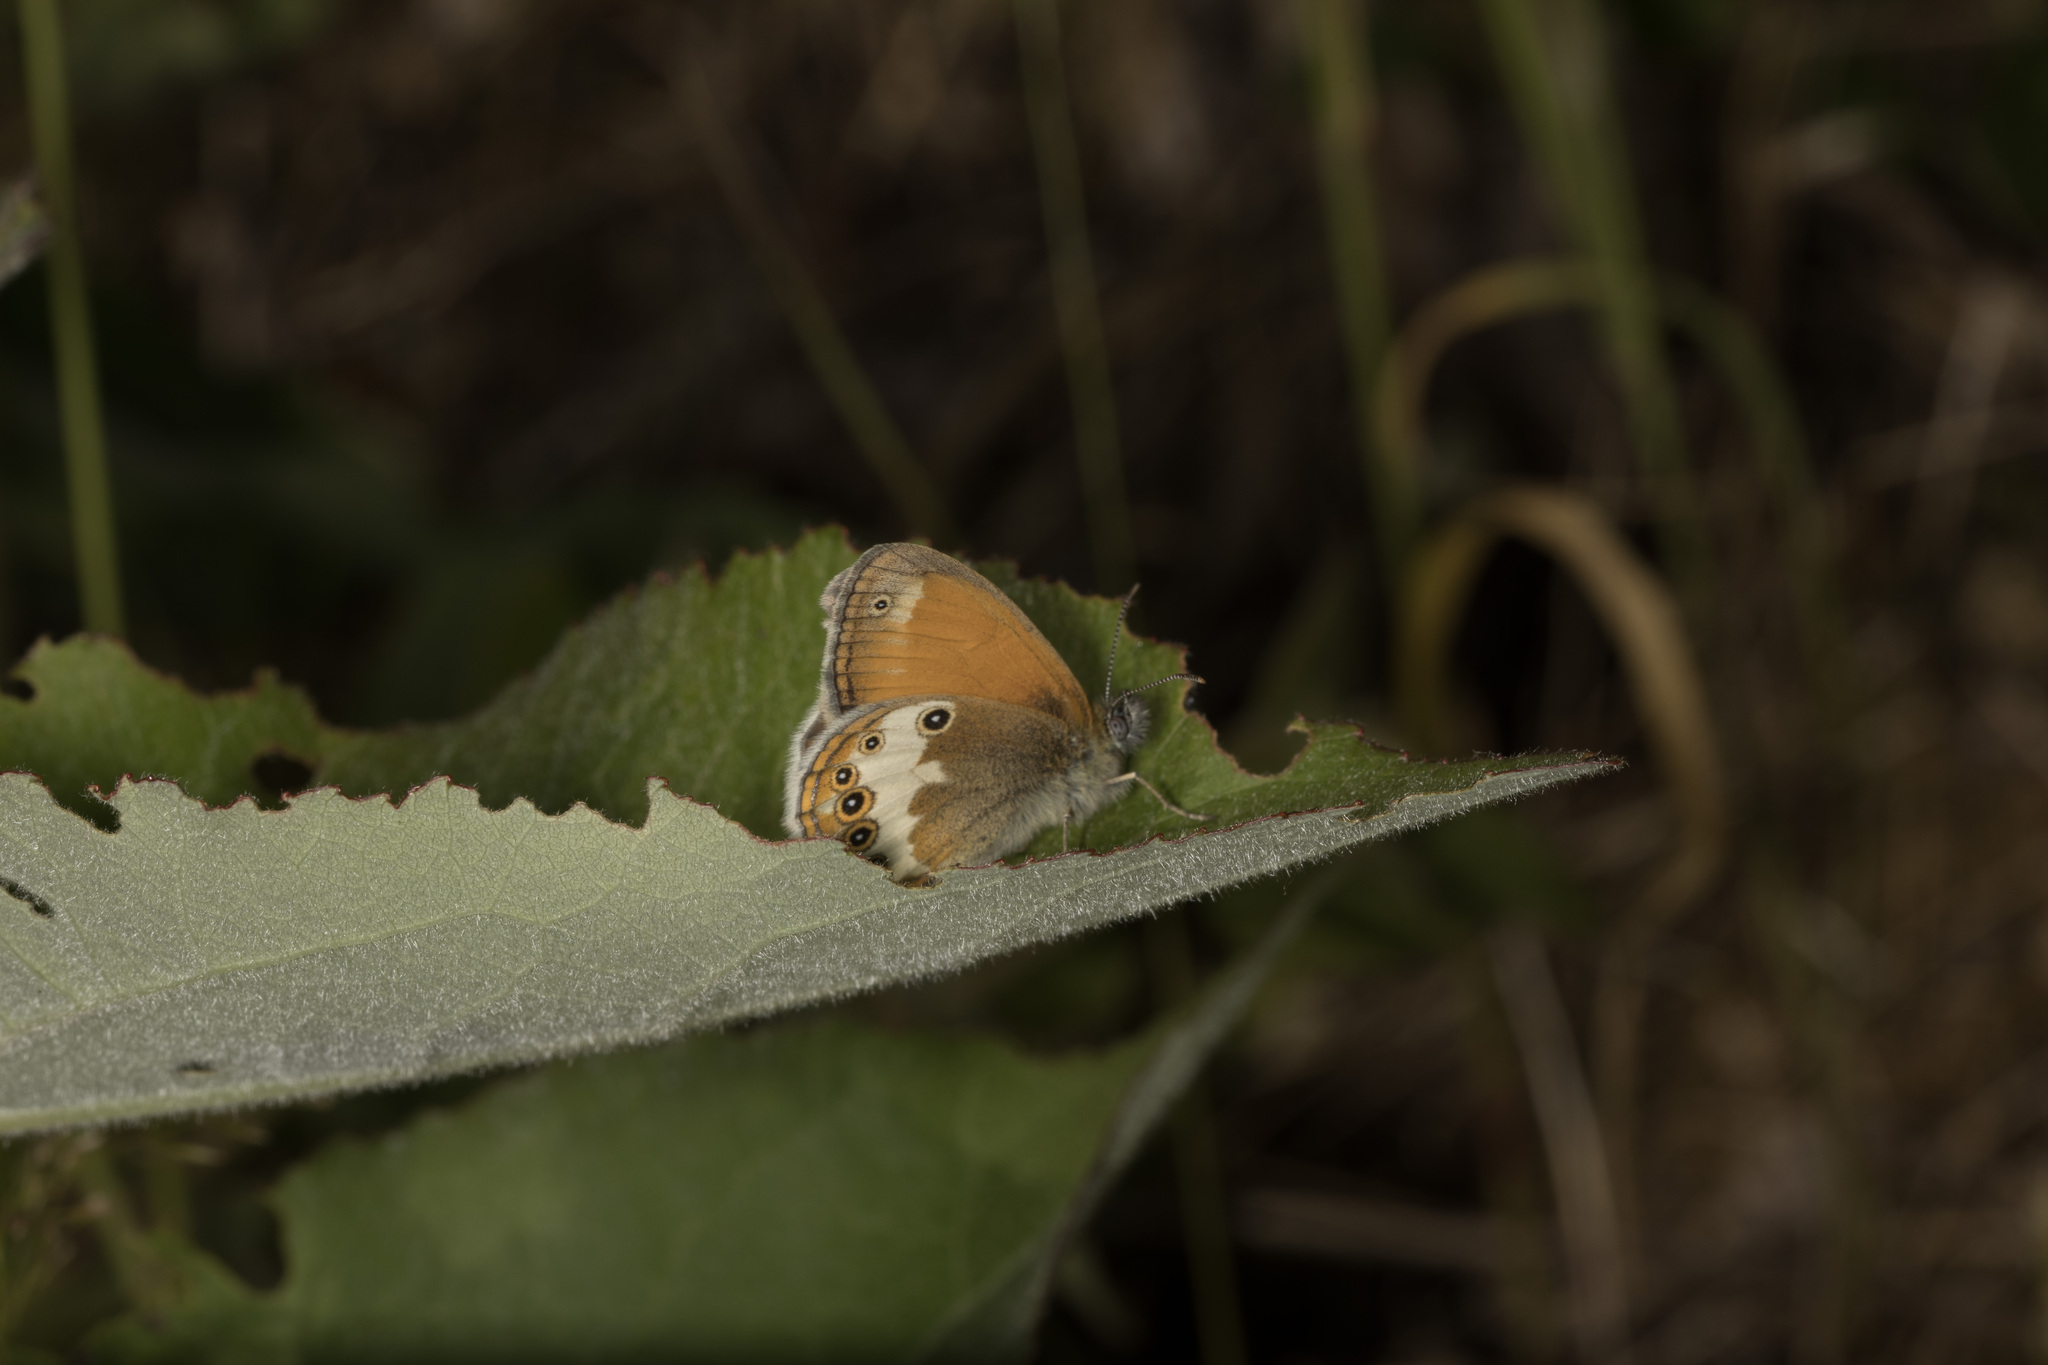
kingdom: Animalia
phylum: Arthropoda
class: Insecta
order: Lepidoptera
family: Nymphalidae
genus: Coenonympha
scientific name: Coenonympha arcania
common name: Pearly heath
